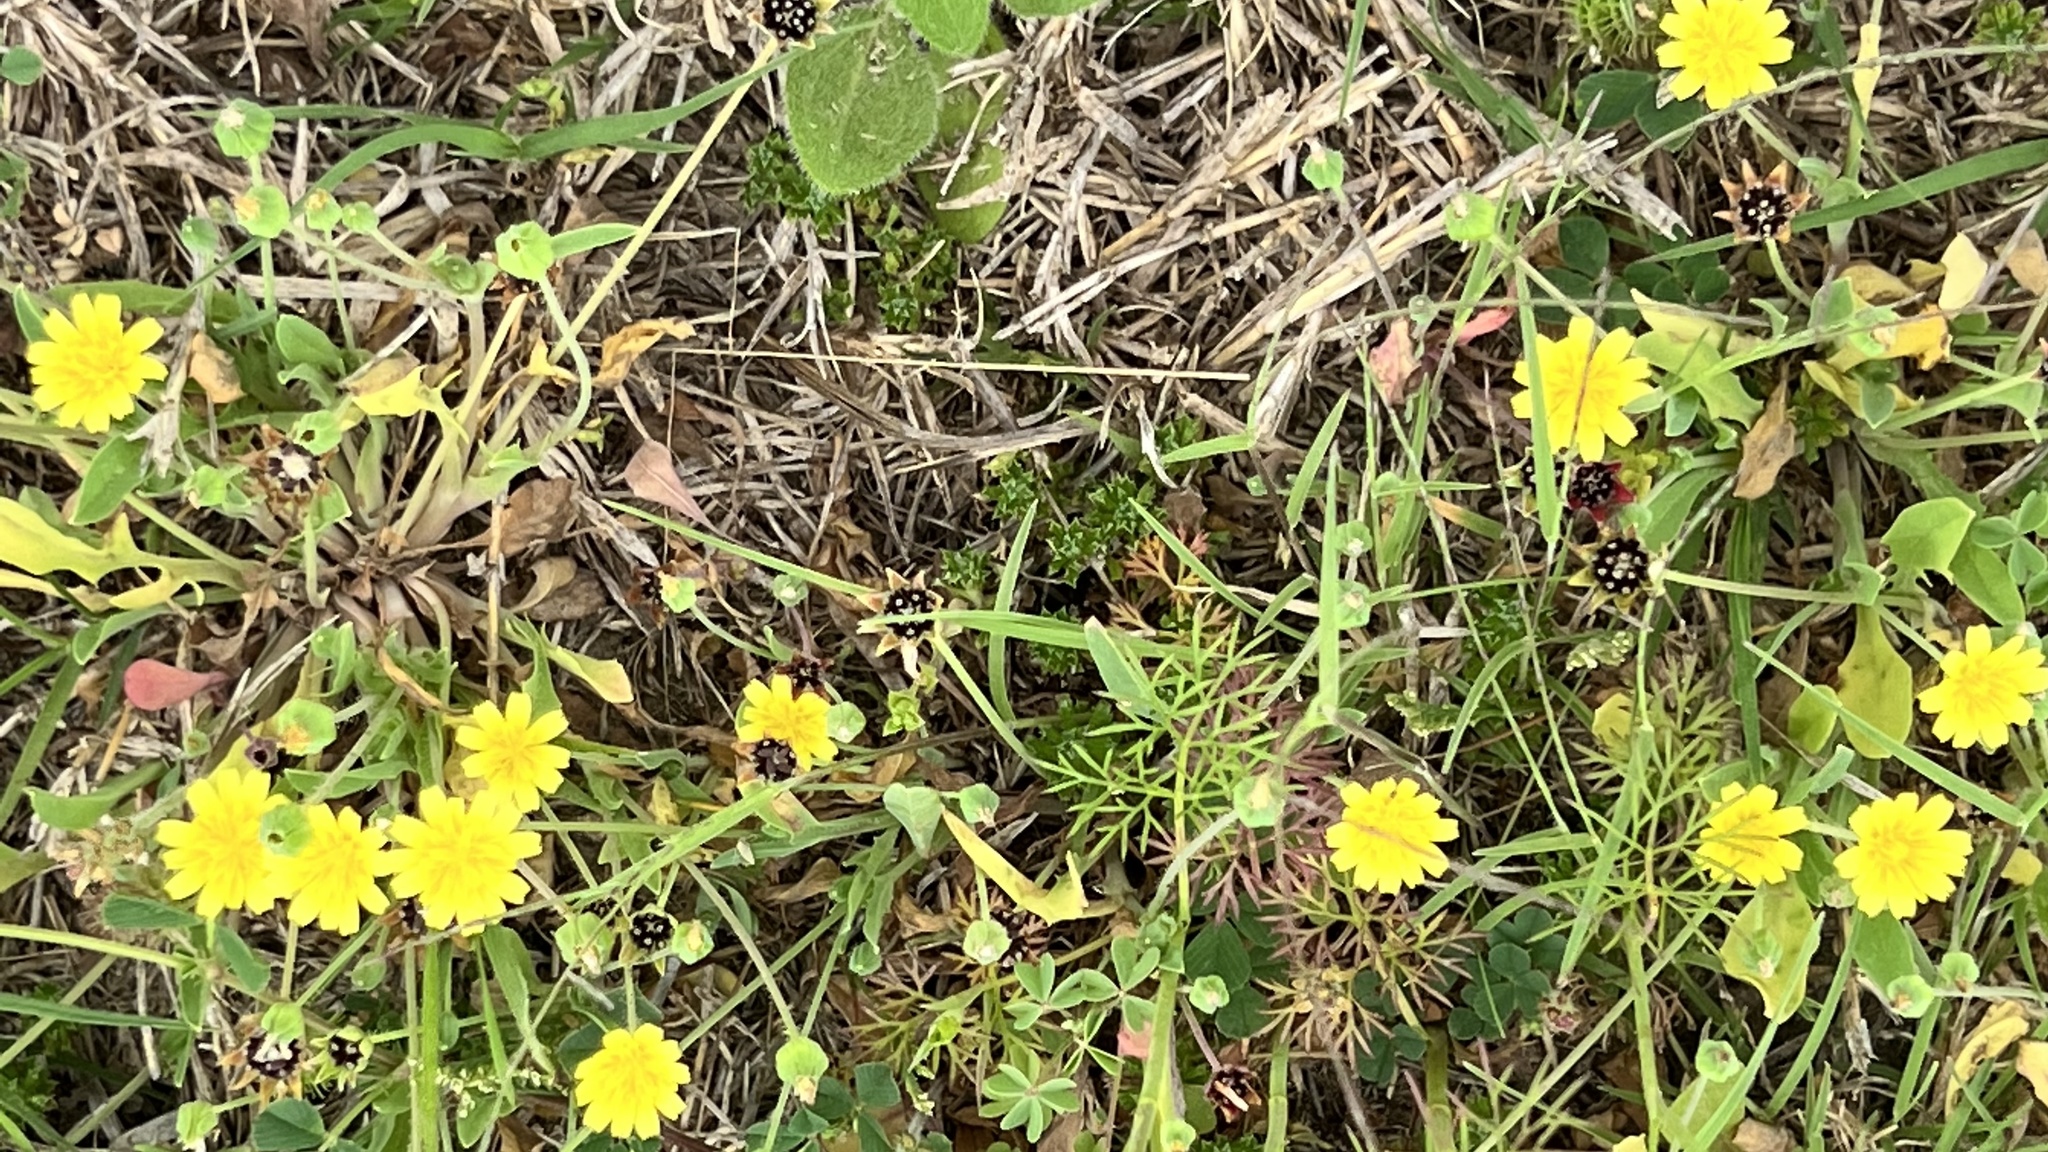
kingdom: Plantae
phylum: Tracheophyta
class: Magnoliopsida
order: Asterales
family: Asteraceae
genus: Krigia
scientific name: Krigia cespitosa
